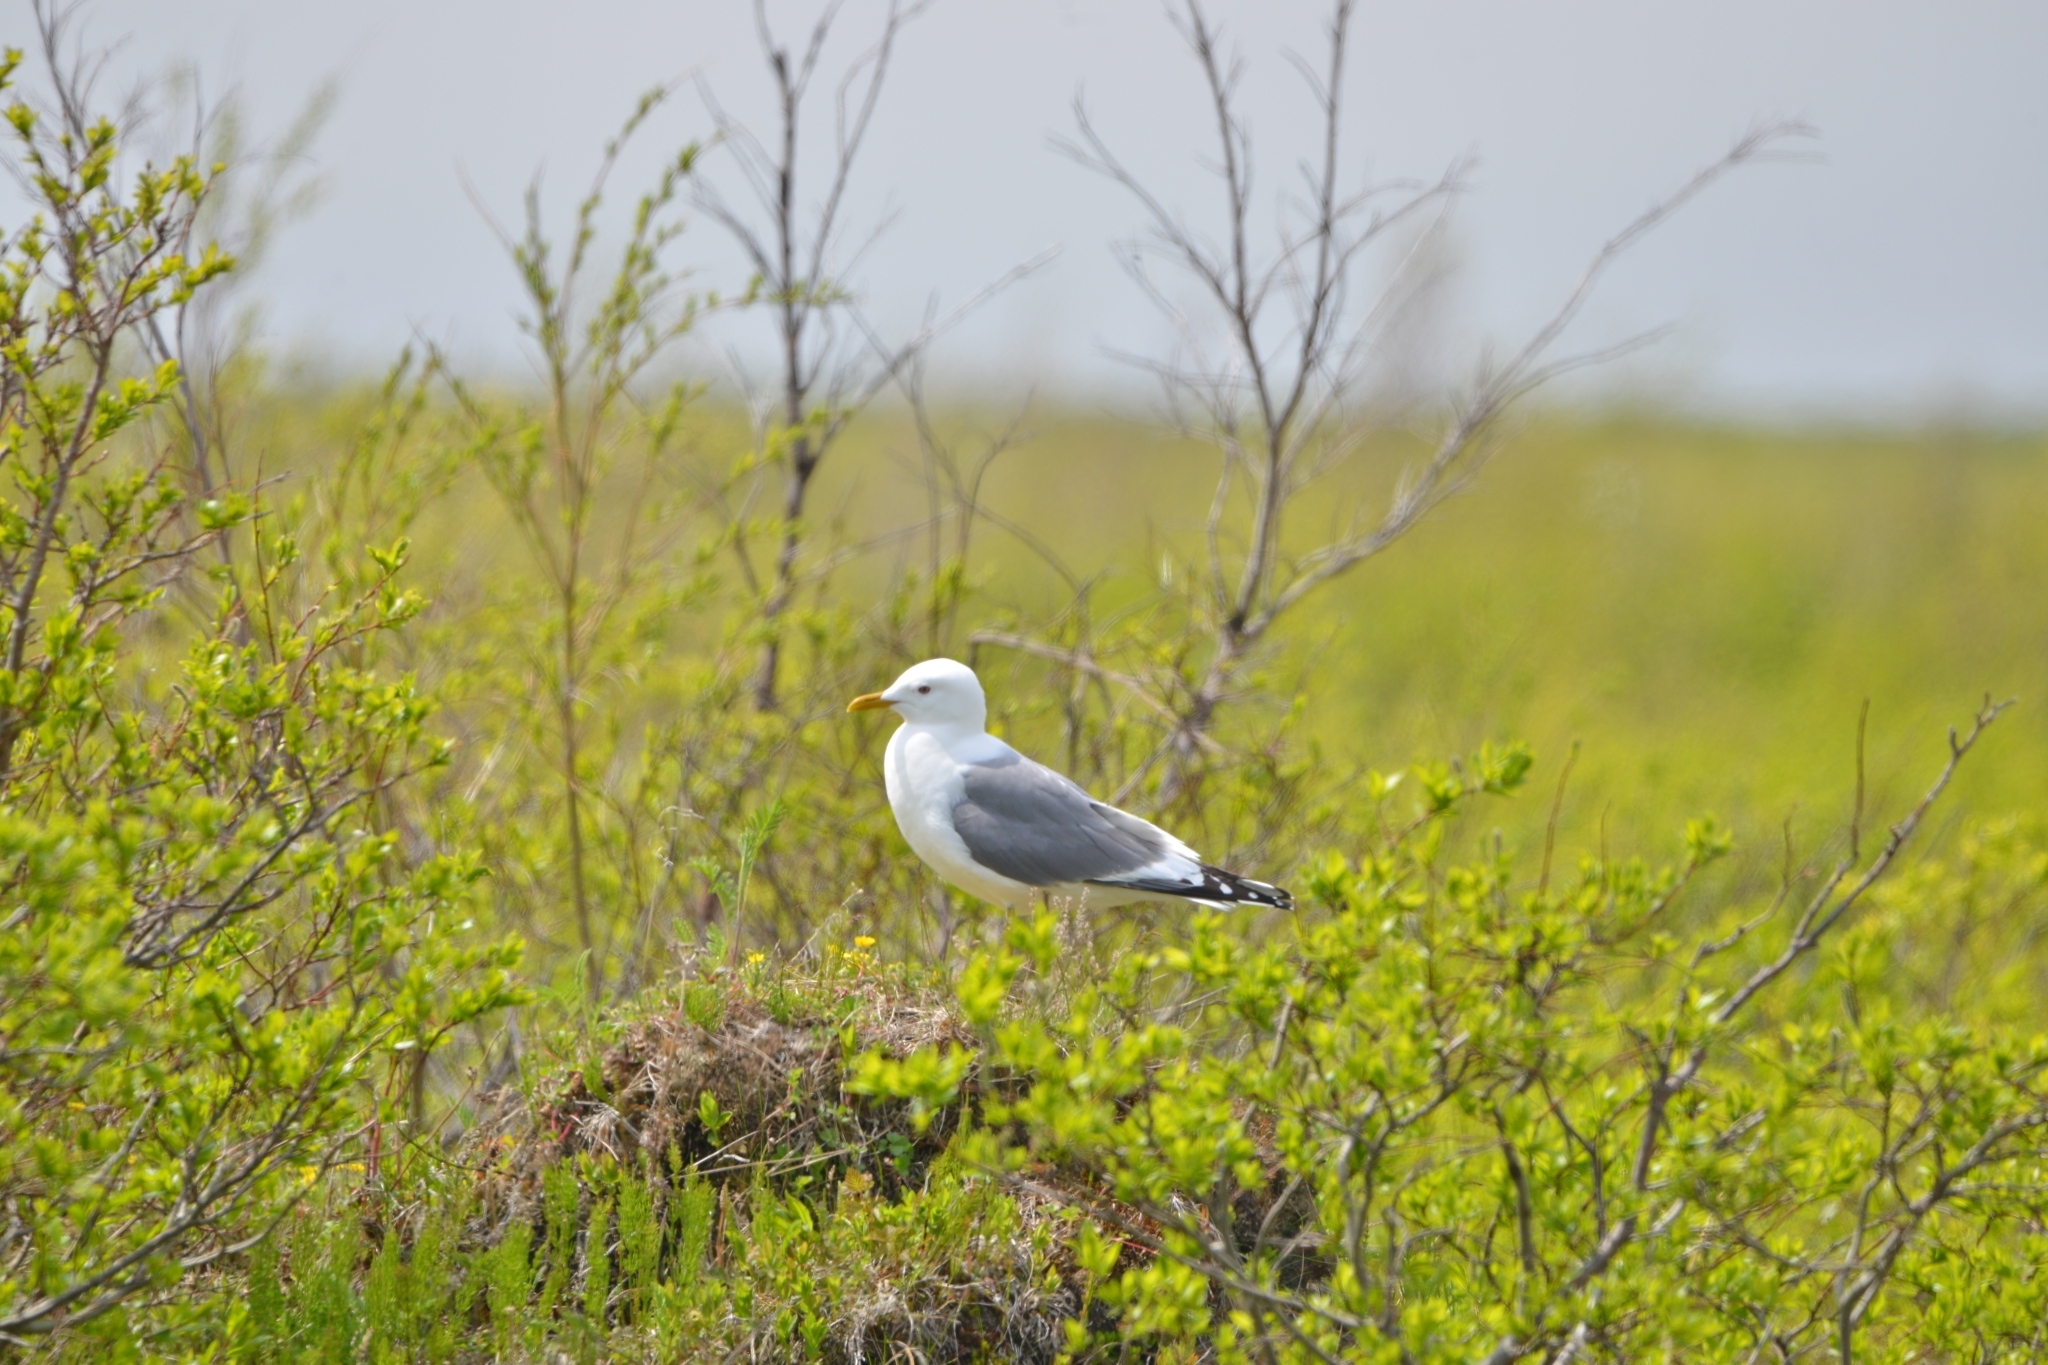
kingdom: Animalia
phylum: Chordata
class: Aves
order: Charadriiformes
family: Laridae
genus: Larus
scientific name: Larus canus
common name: Mew gull
